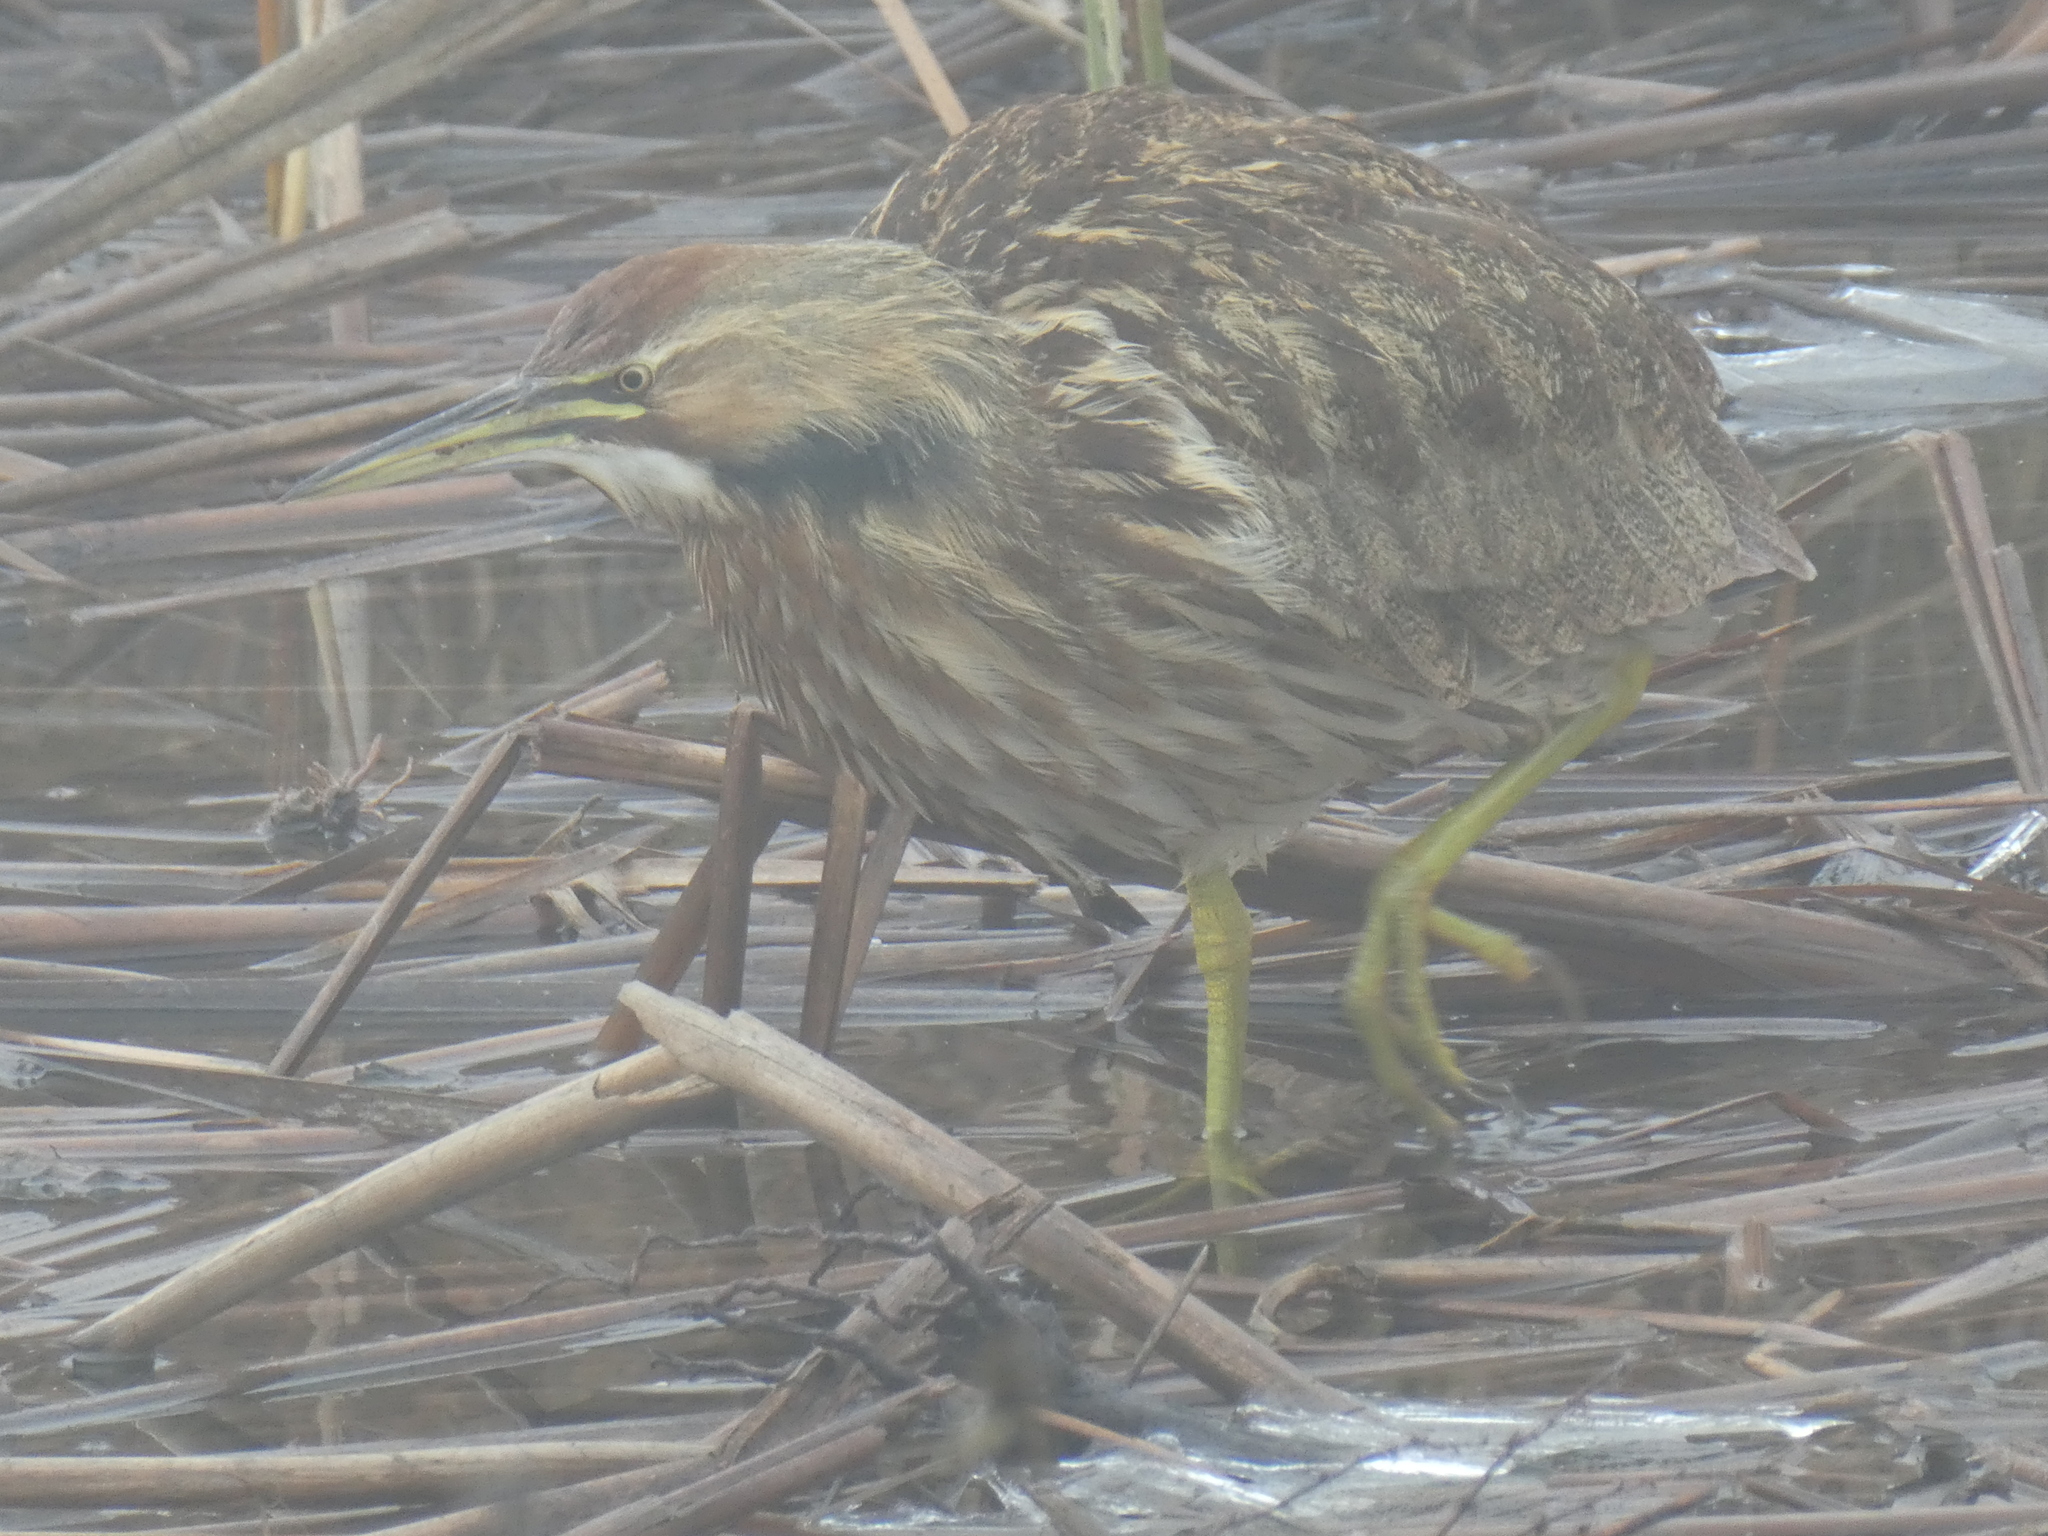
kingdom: Animalia
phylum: Chordata
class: Aves
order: Pelecaniformes
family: Ardeidae
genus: Botaurus
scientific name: Botaurus lentiginosus
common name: American bittern
